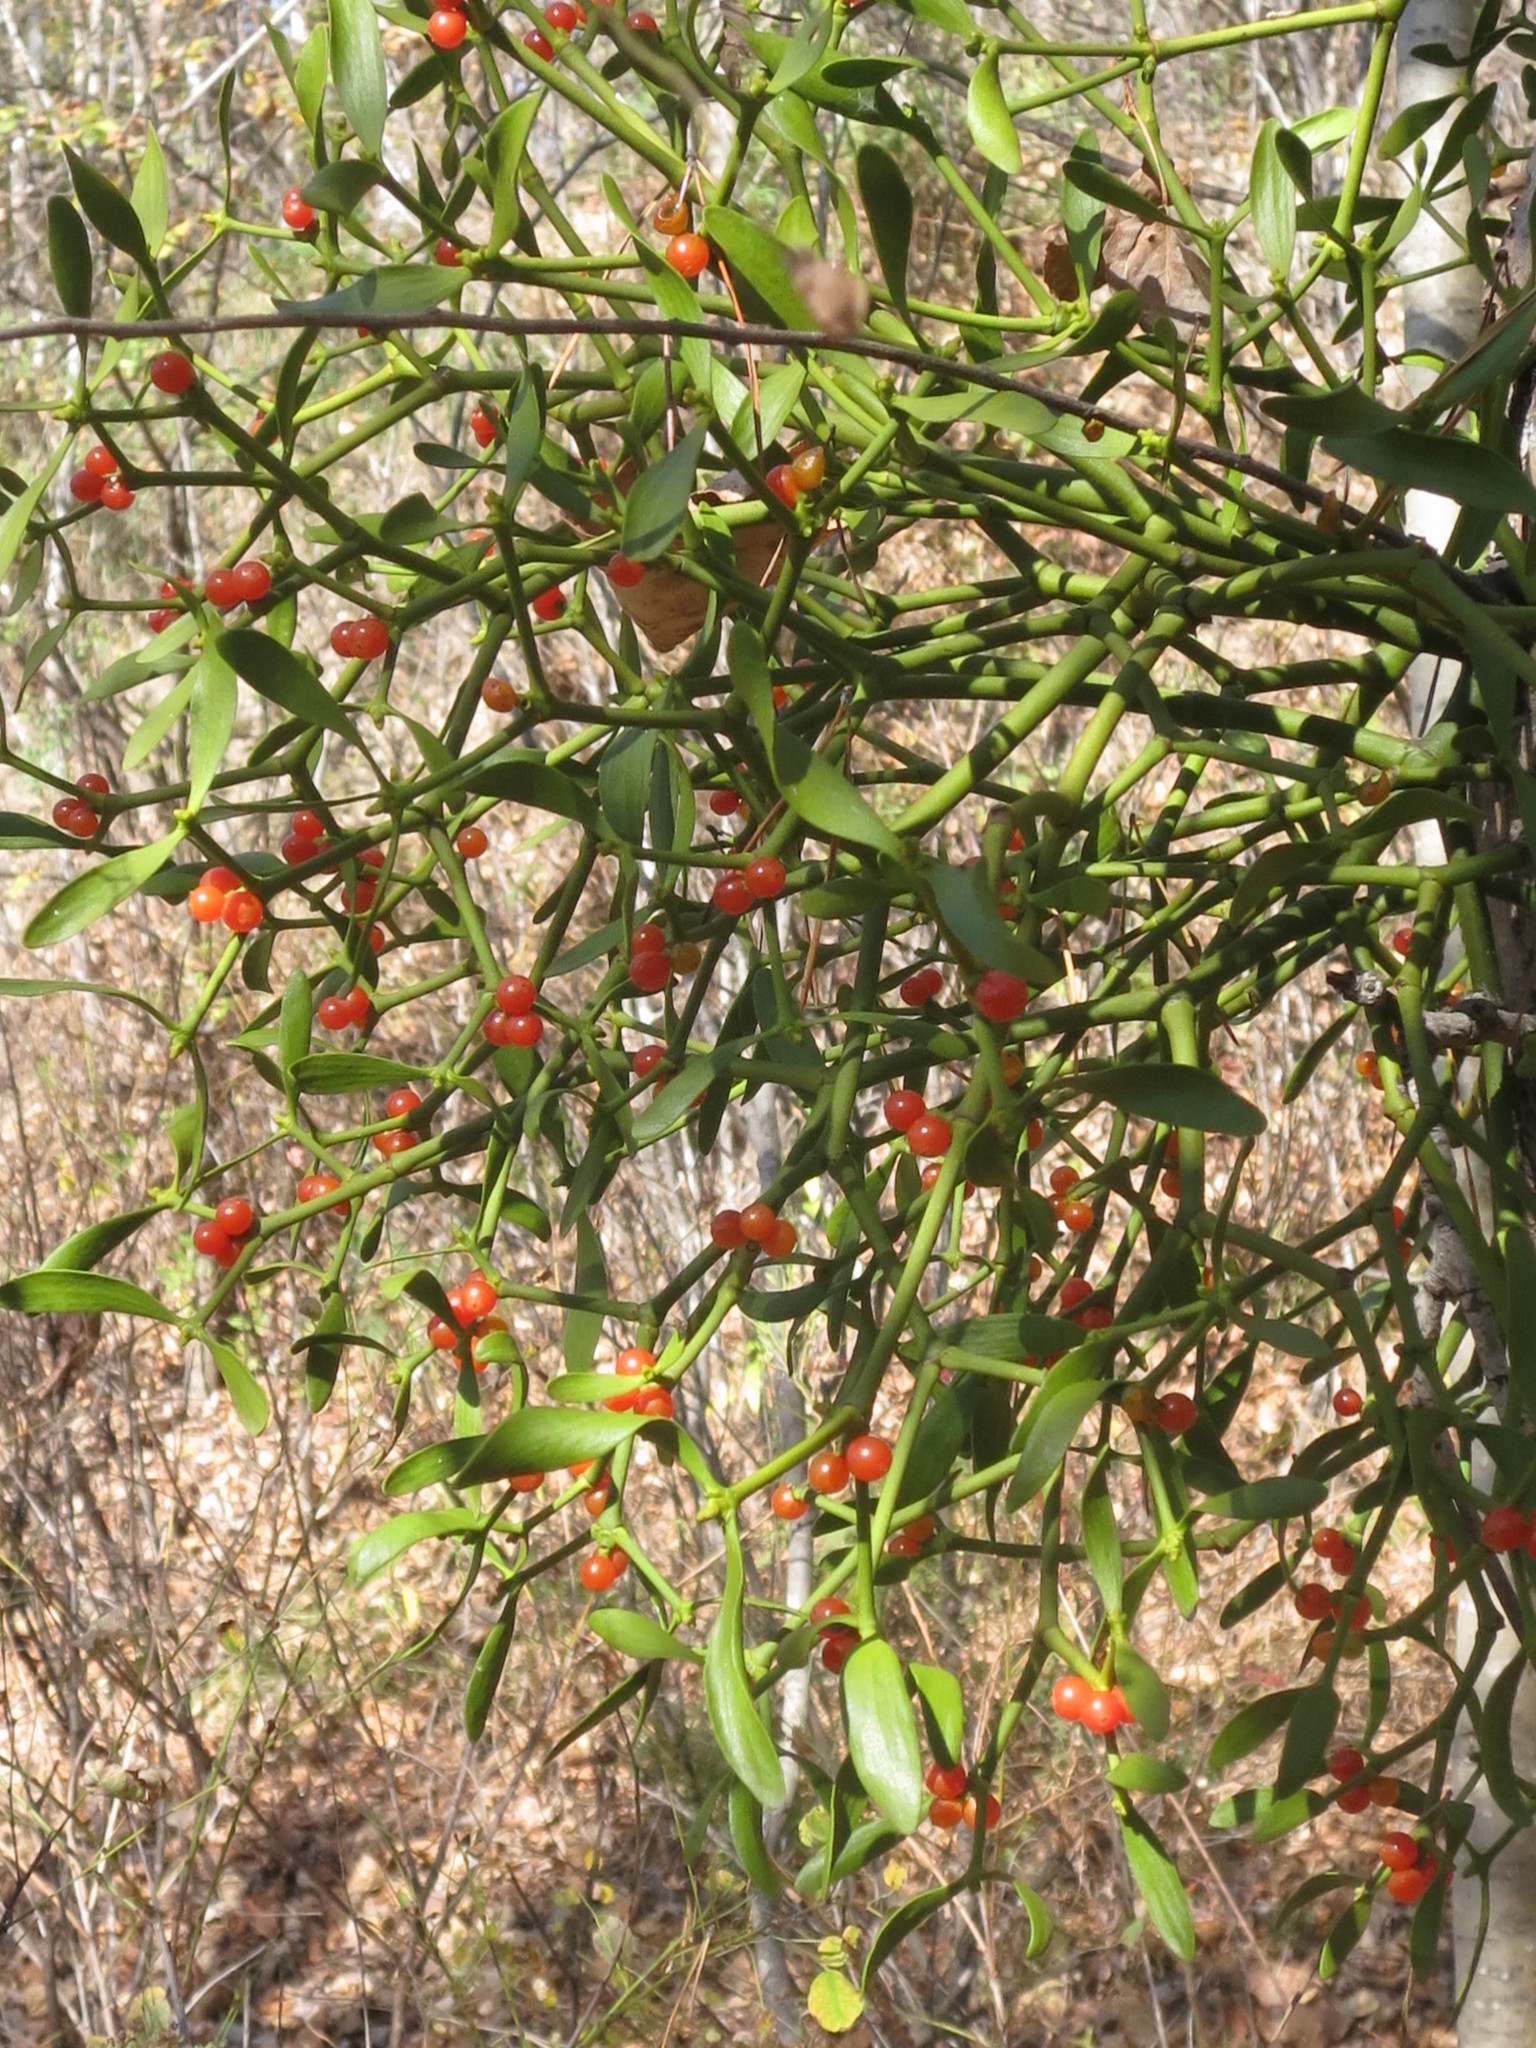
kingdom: Plantae
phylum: Tracheophyta
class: Magnoliopsida
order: Santalales
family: Viscaceae
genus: Viscum
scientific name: Viscum coloratum
